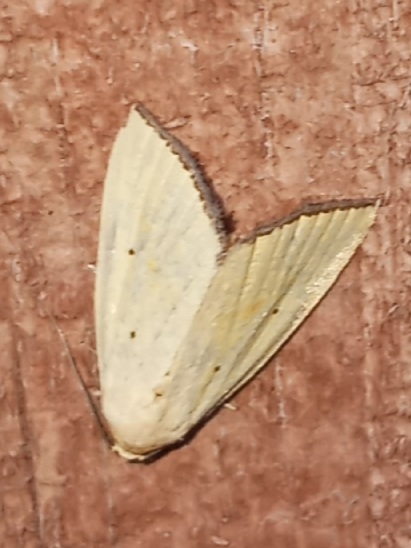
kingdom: Animalia
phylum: Arthropoda
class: Insecta
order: Lepidoptera
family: Noctuidae
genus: Marimatha
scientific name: Marimatha nigrofimbria
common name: Black-bordered lemon moth
